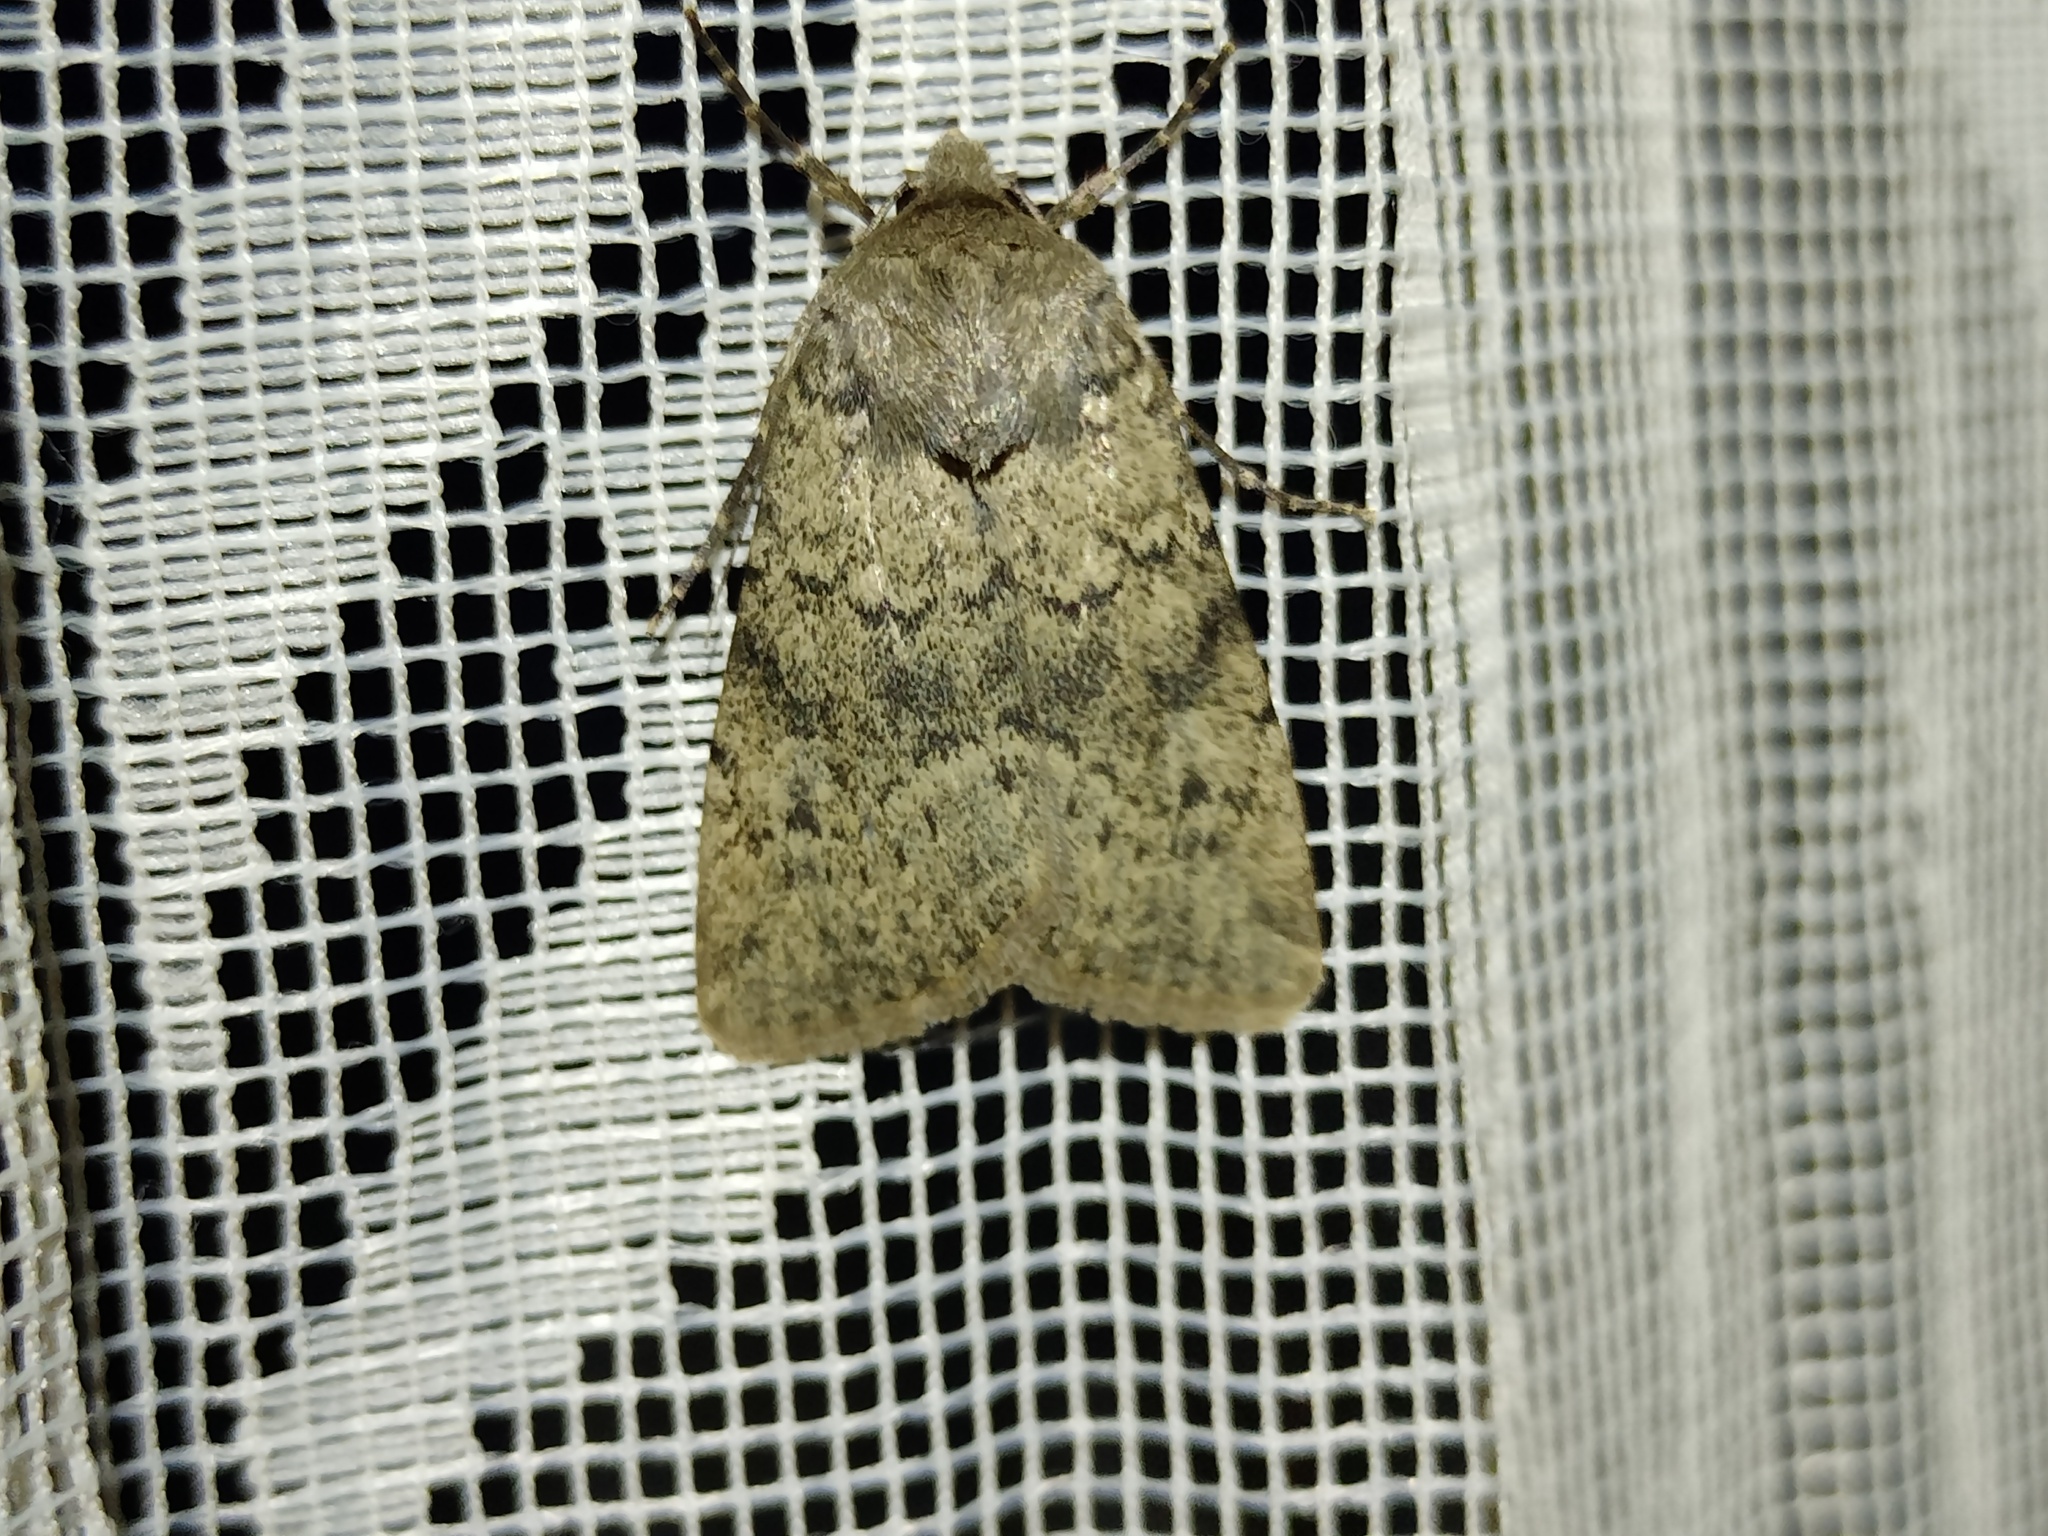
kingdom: Animalia
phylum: Arthropoda
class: Insecta
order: Lepidoptera
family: Noctuidae
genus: Epipsilia
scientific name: Epipsilia latens
